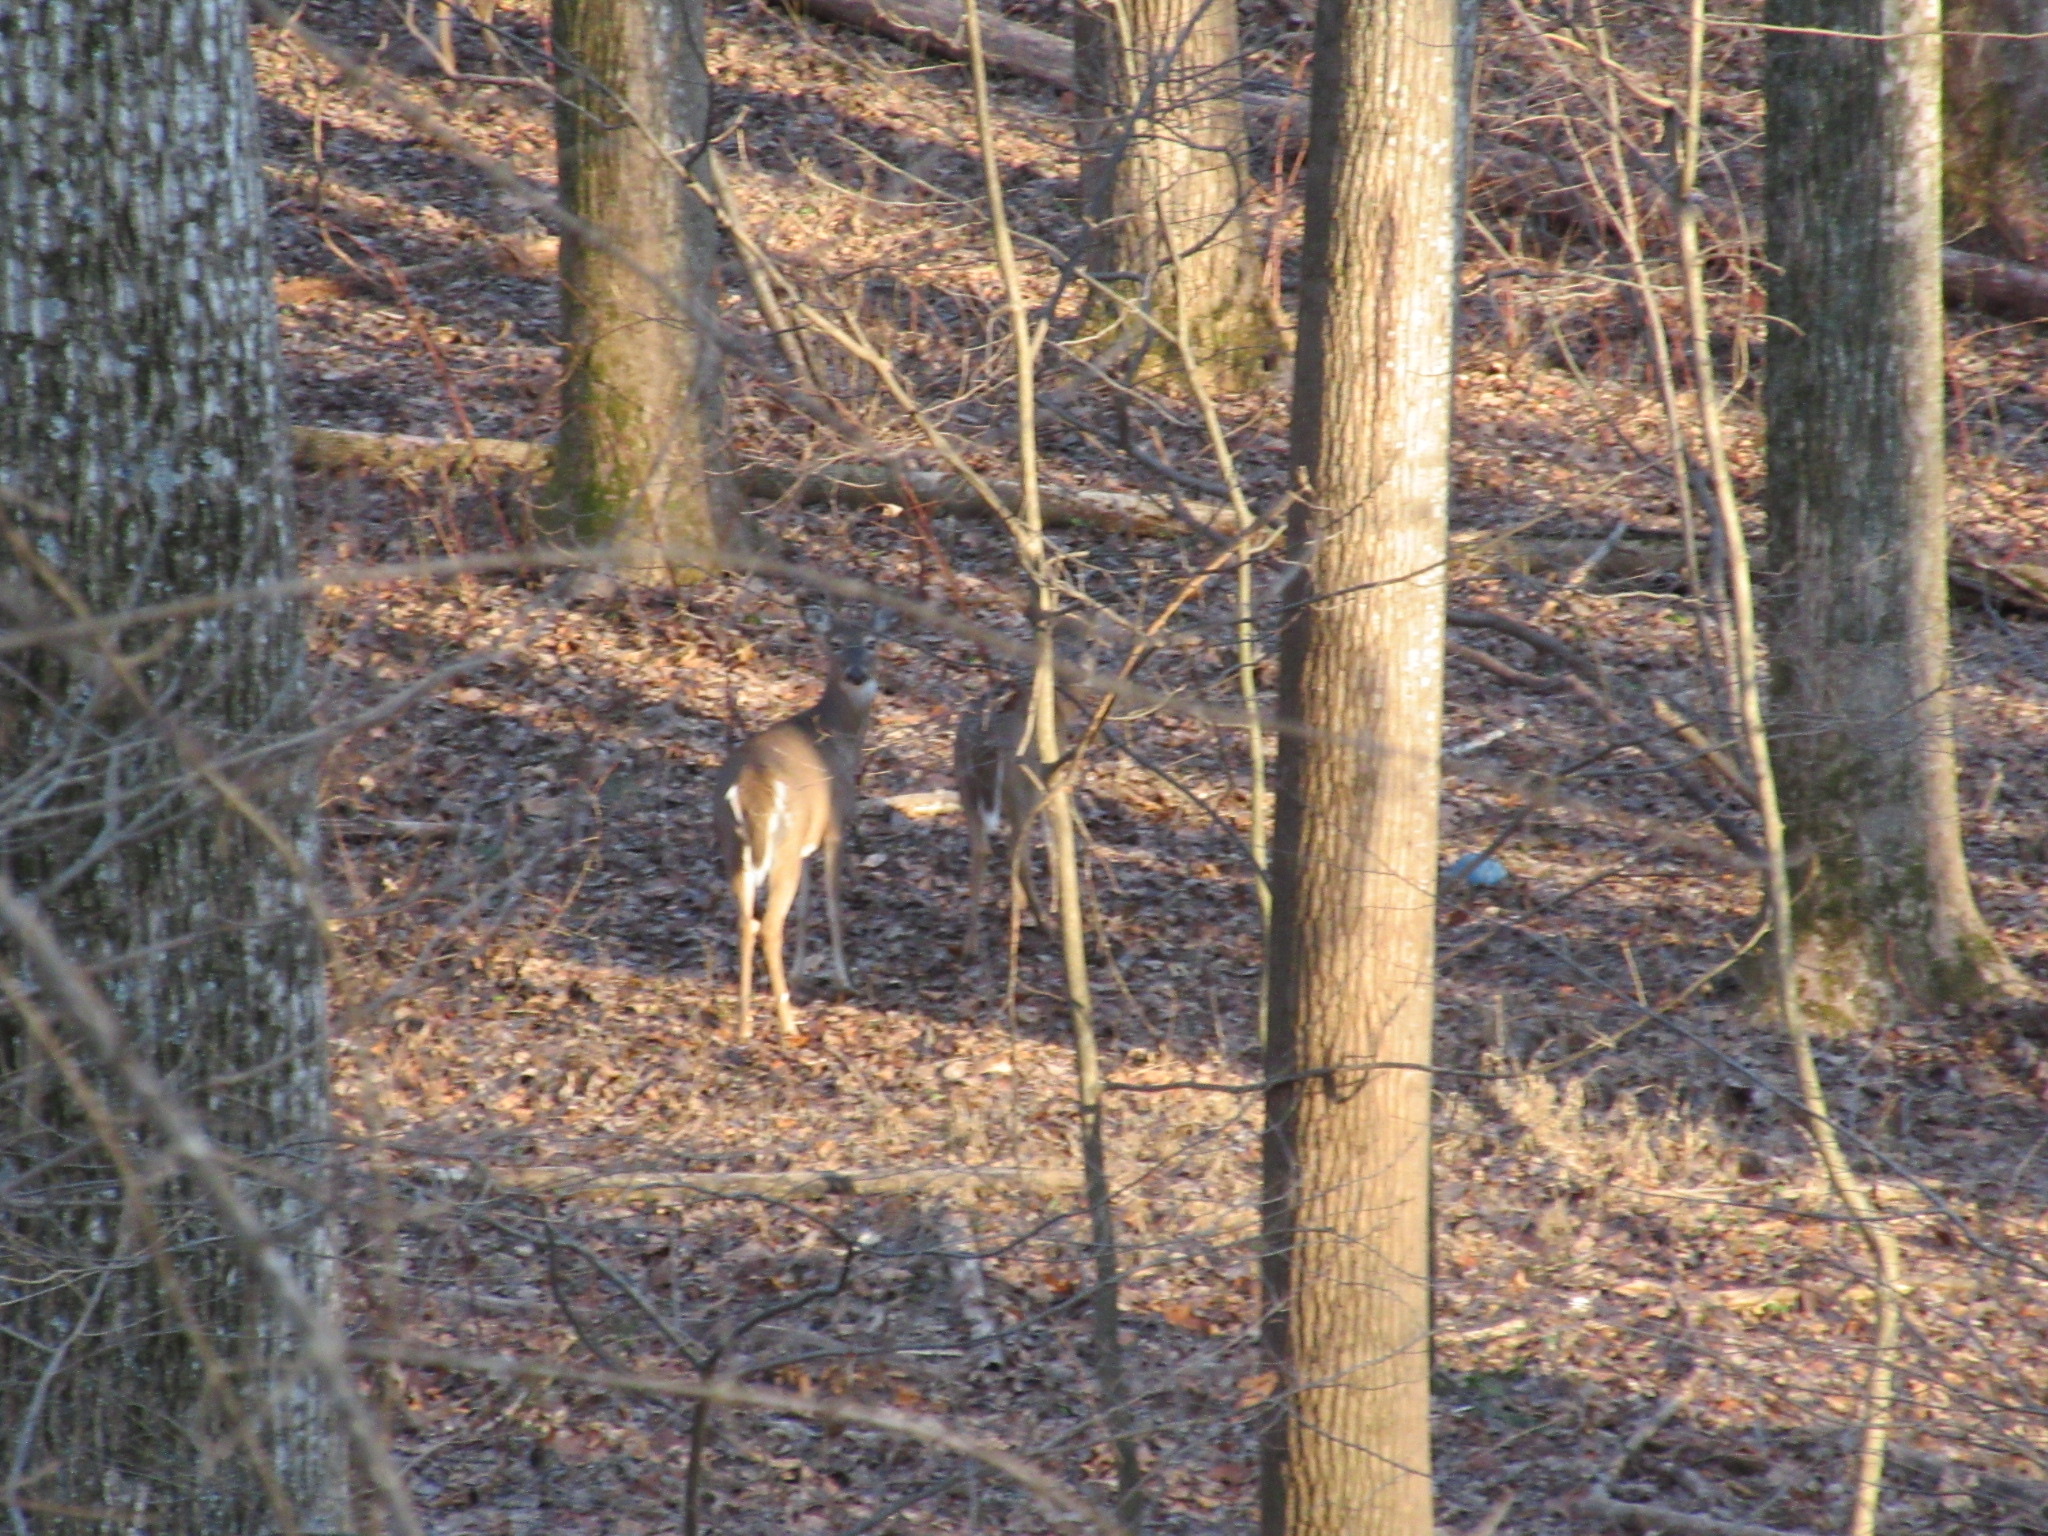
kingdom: Animalia
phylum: Chordata
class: Mammalia
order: Artiodactyla
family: Cervidae
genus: Odocoileus
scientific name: Odocoileus virginianus
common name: White-tailed deer
